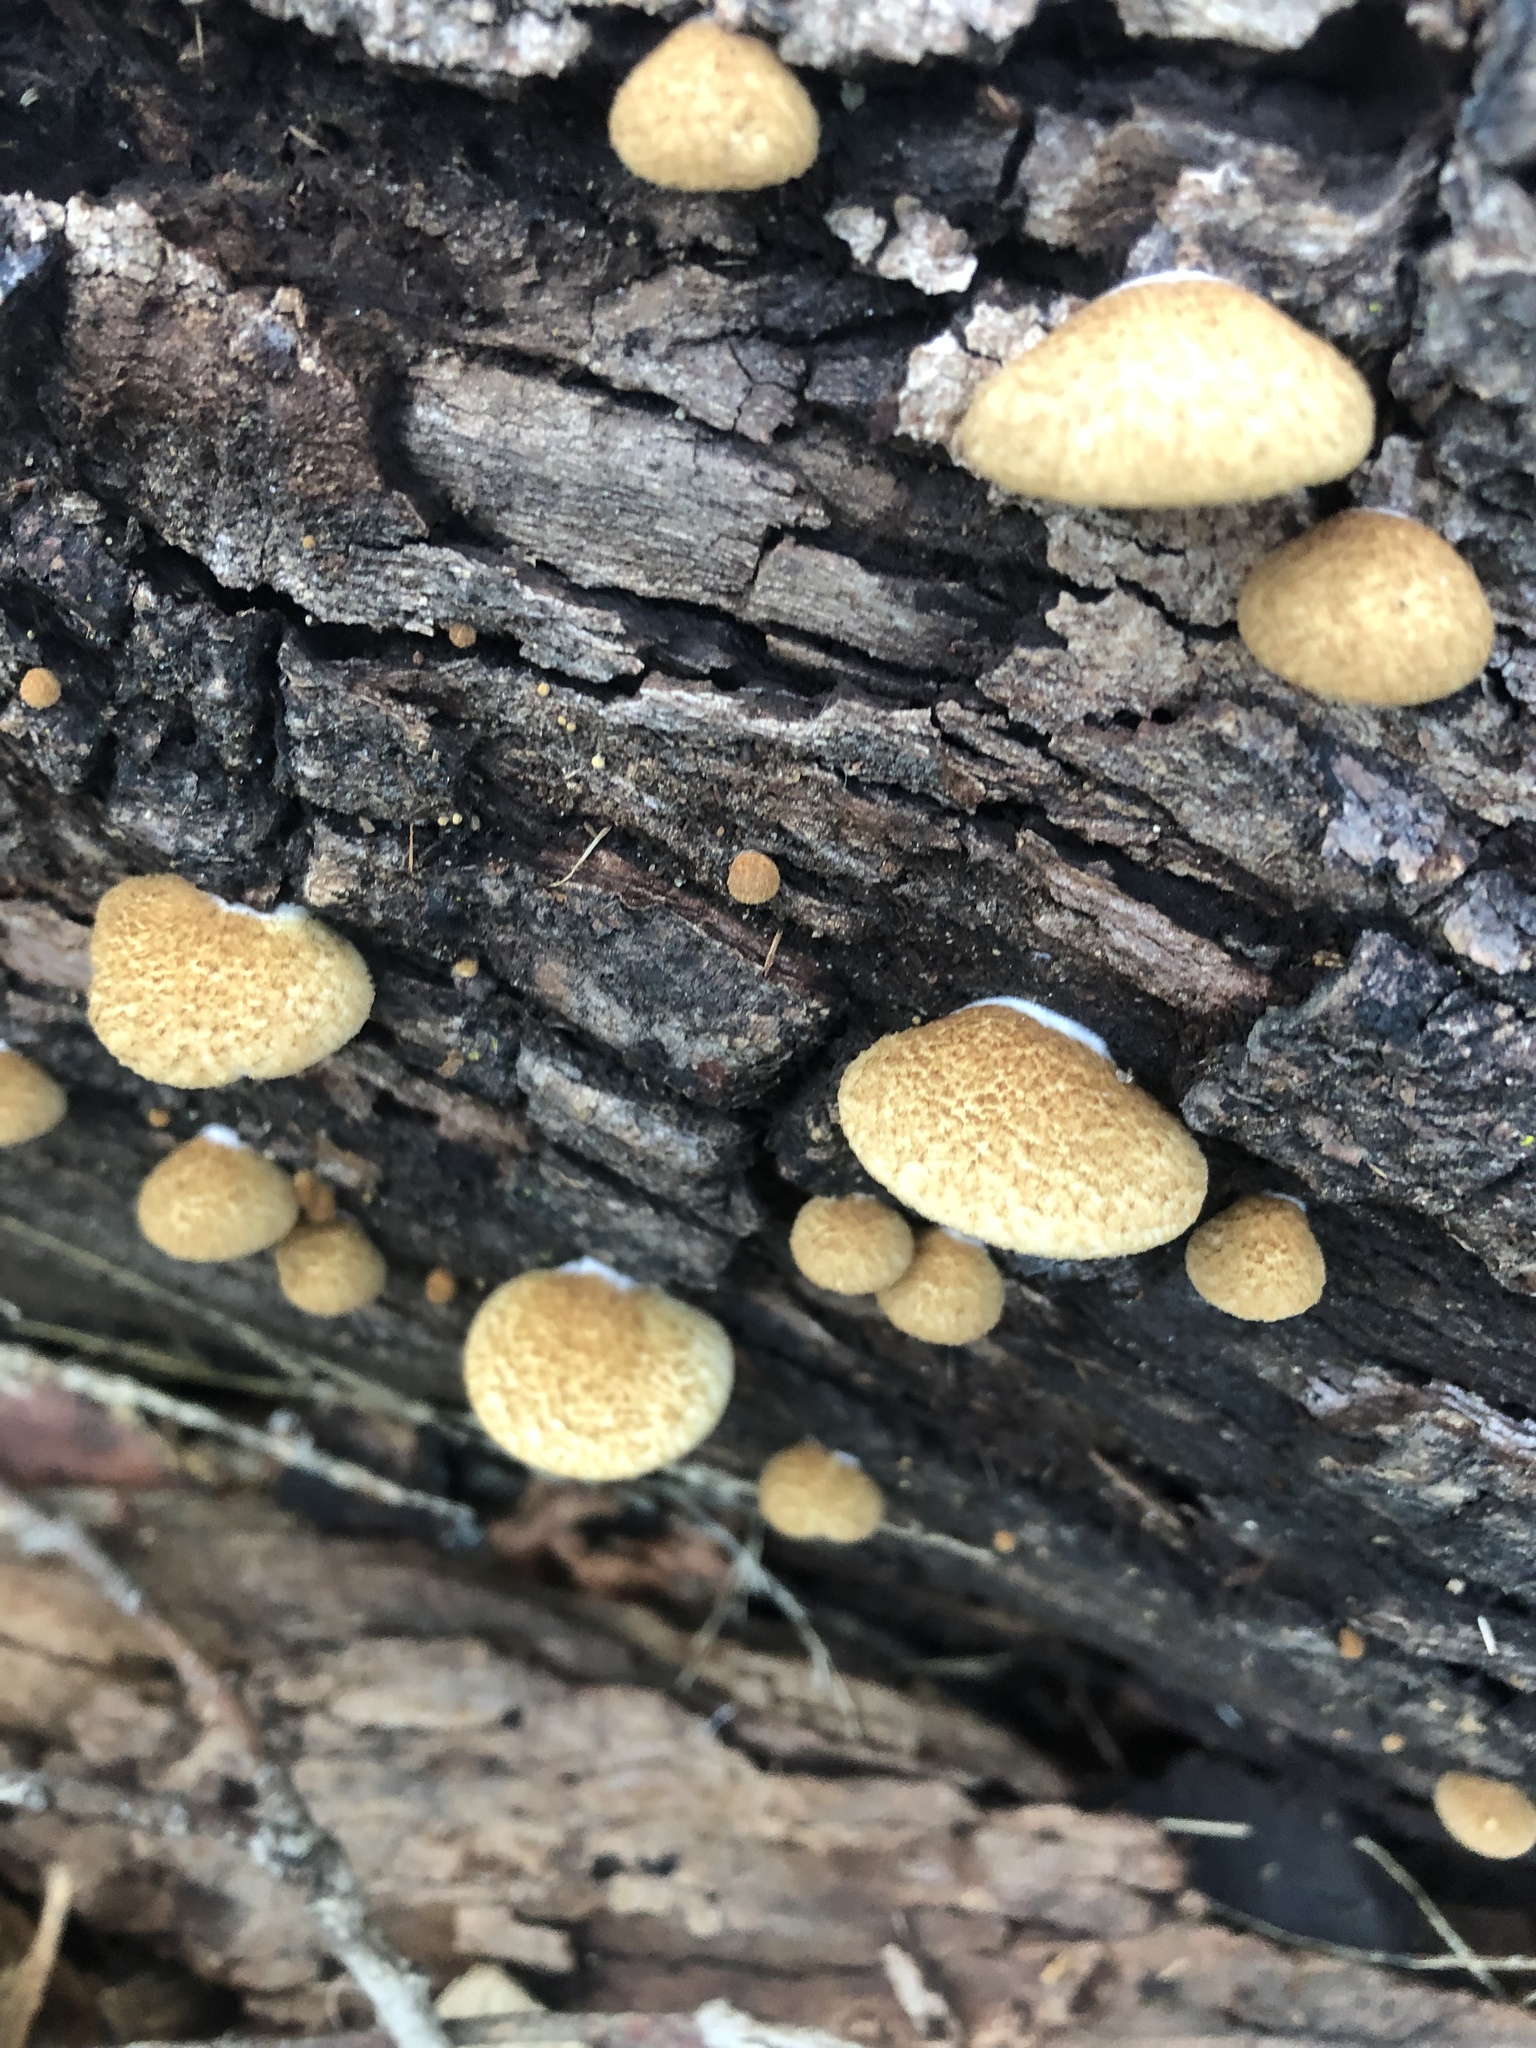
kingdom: Fungi
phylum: Basidiomycota
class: Agaricomycetes
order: Agaricales
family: Crepidotaceae
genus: Crepidotus
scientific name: Crepidotus mollis
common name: Peeling oysterling
